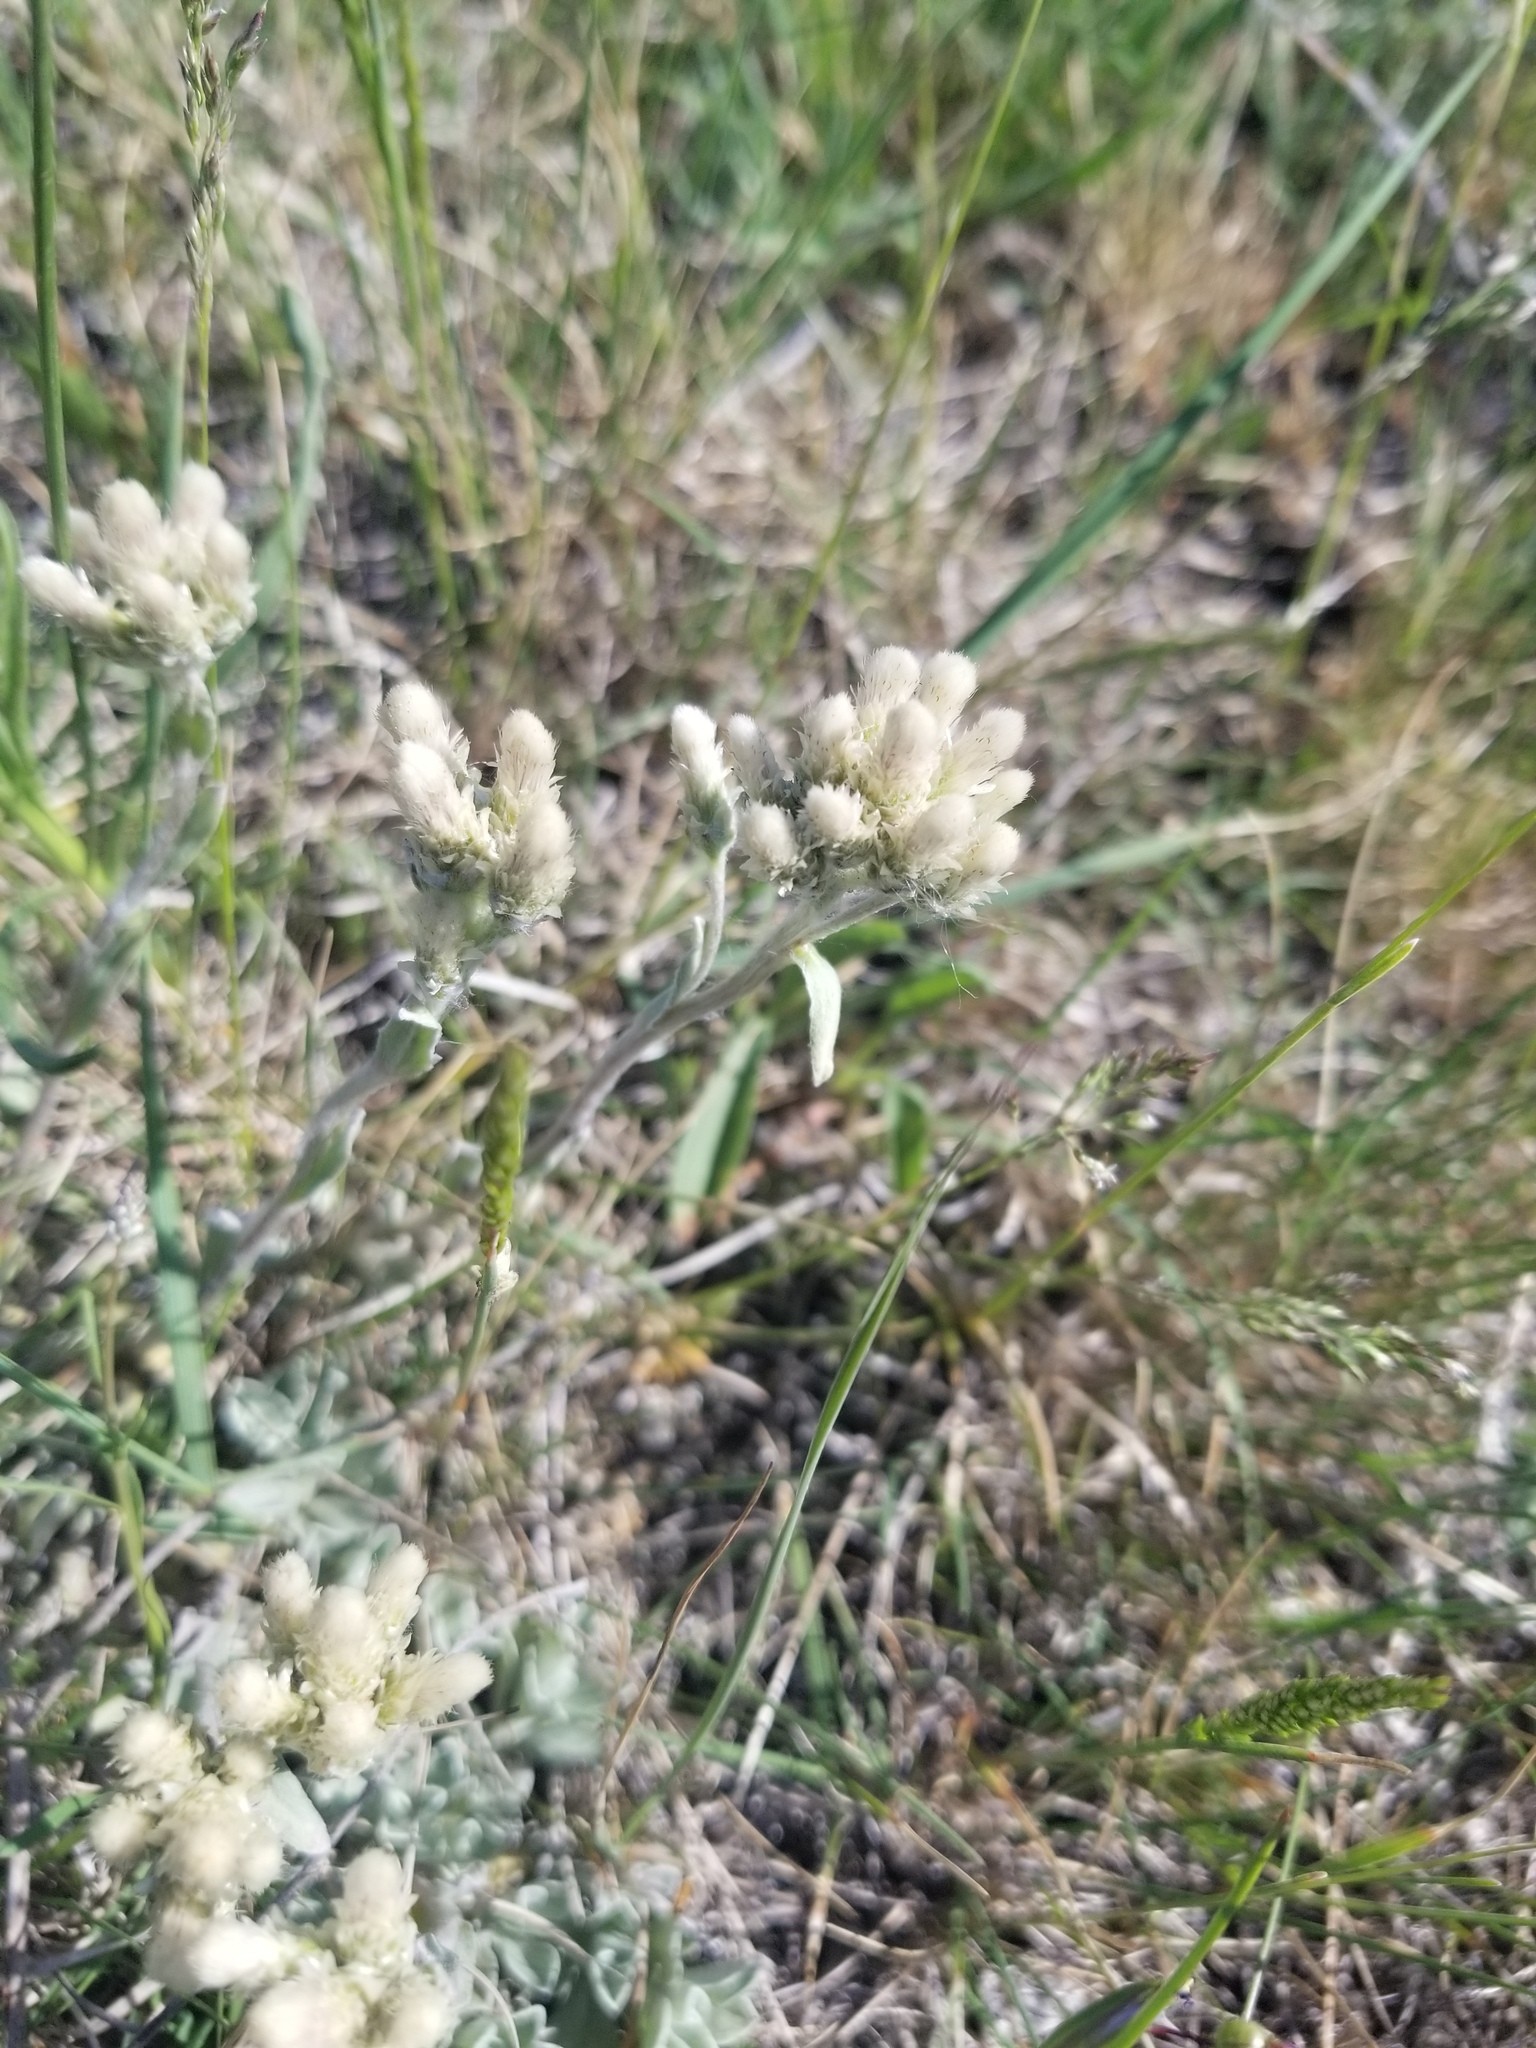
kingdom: Plantae
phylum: Tracheophyta
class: Magnoliopsida
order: Asterales
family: Asteraceae
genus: Antennaria
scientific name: Antennaria parvifolia
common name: Nuttall's pussytoes
